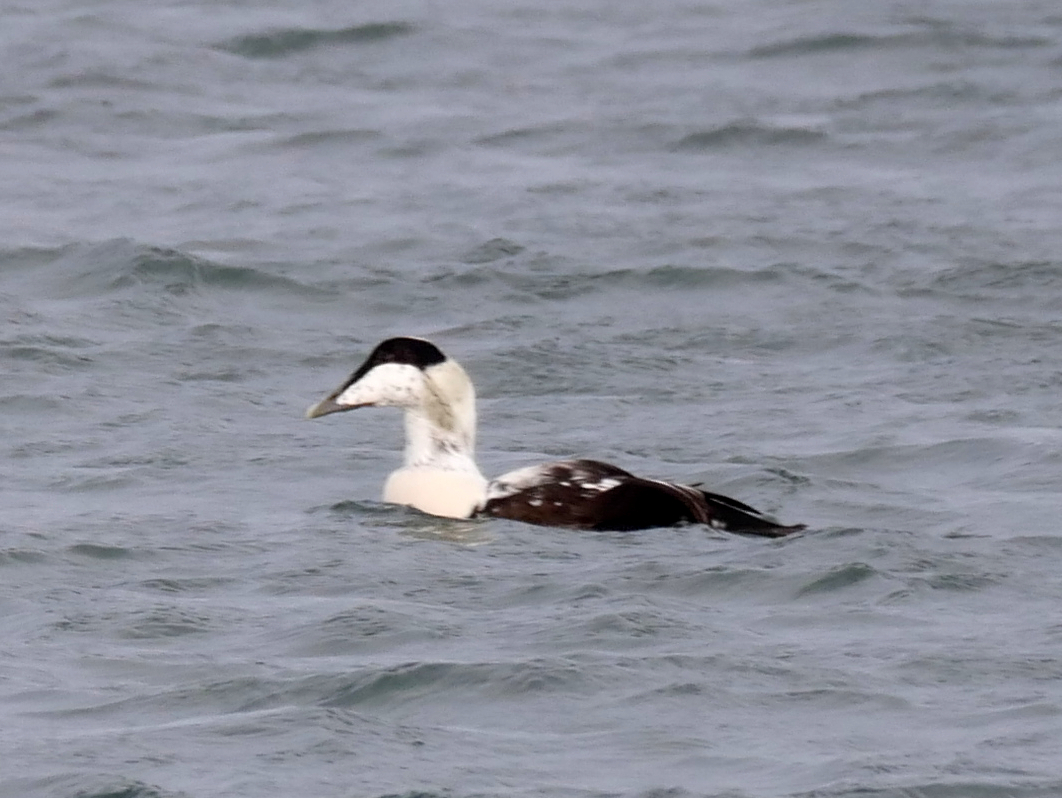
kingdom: Animalia
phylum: Chordata
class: Aves
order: Anseriformes
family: Anatidae
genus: Somateria
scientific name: Somateria mollissima
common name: Common eider
